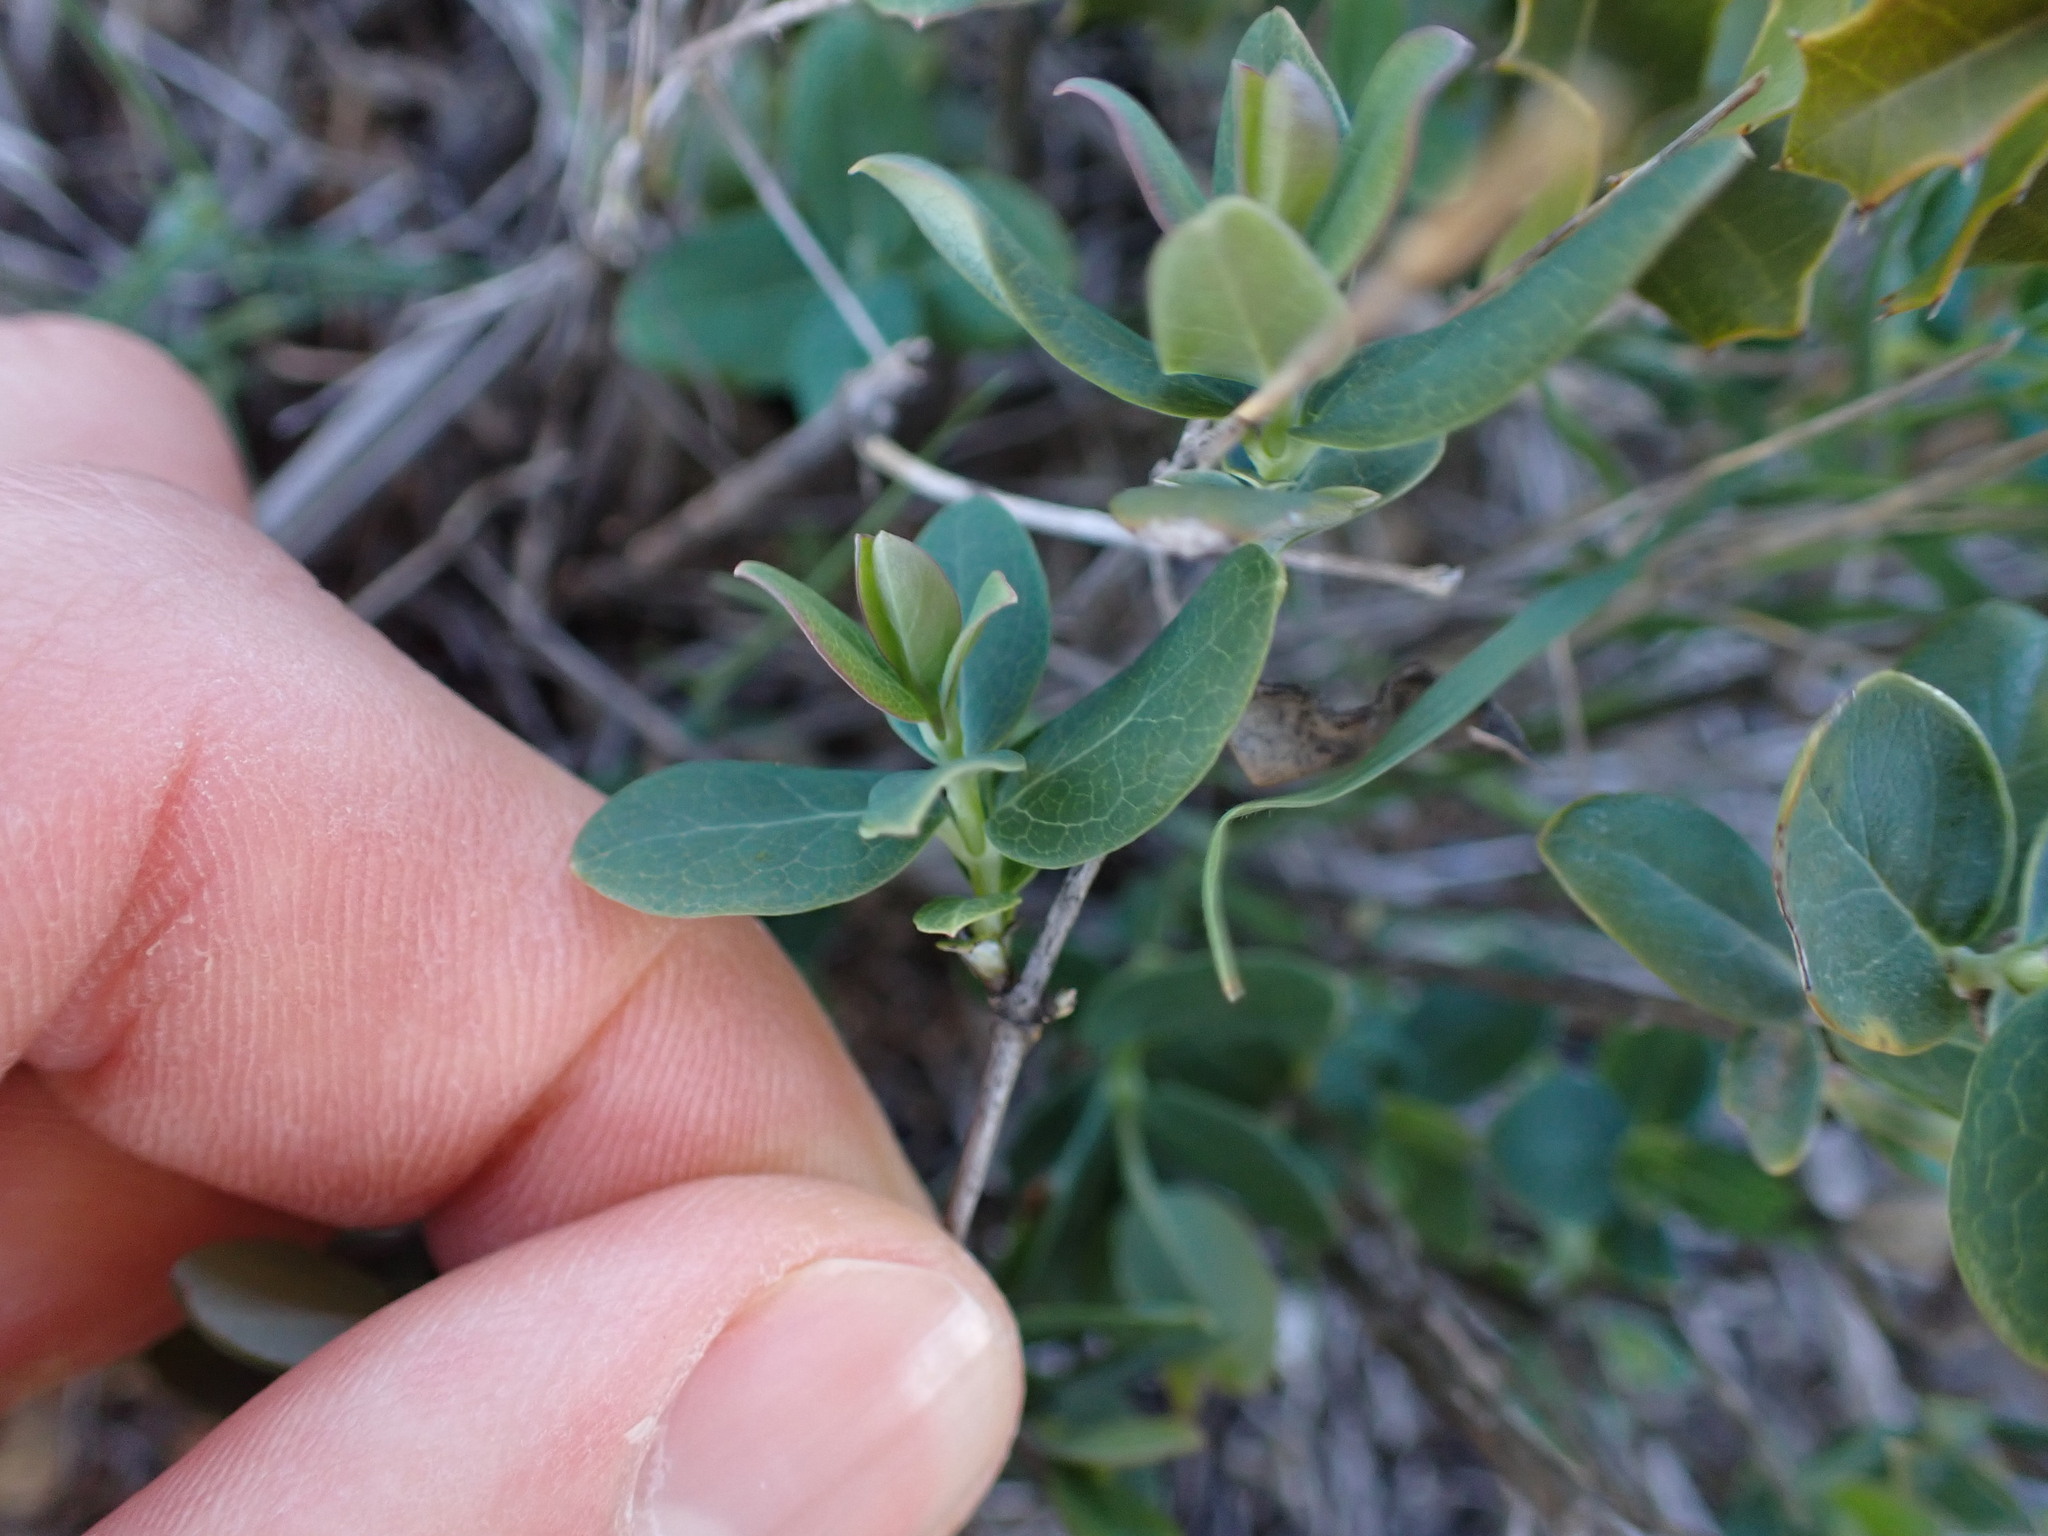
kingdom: Plantae
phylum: Tracheophyta
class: Magnoliopsida
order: Dipsacales
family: Caprifoliaceae
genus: Lonicera
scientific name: Lonicera implexa
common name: Minorca honeysuckle
